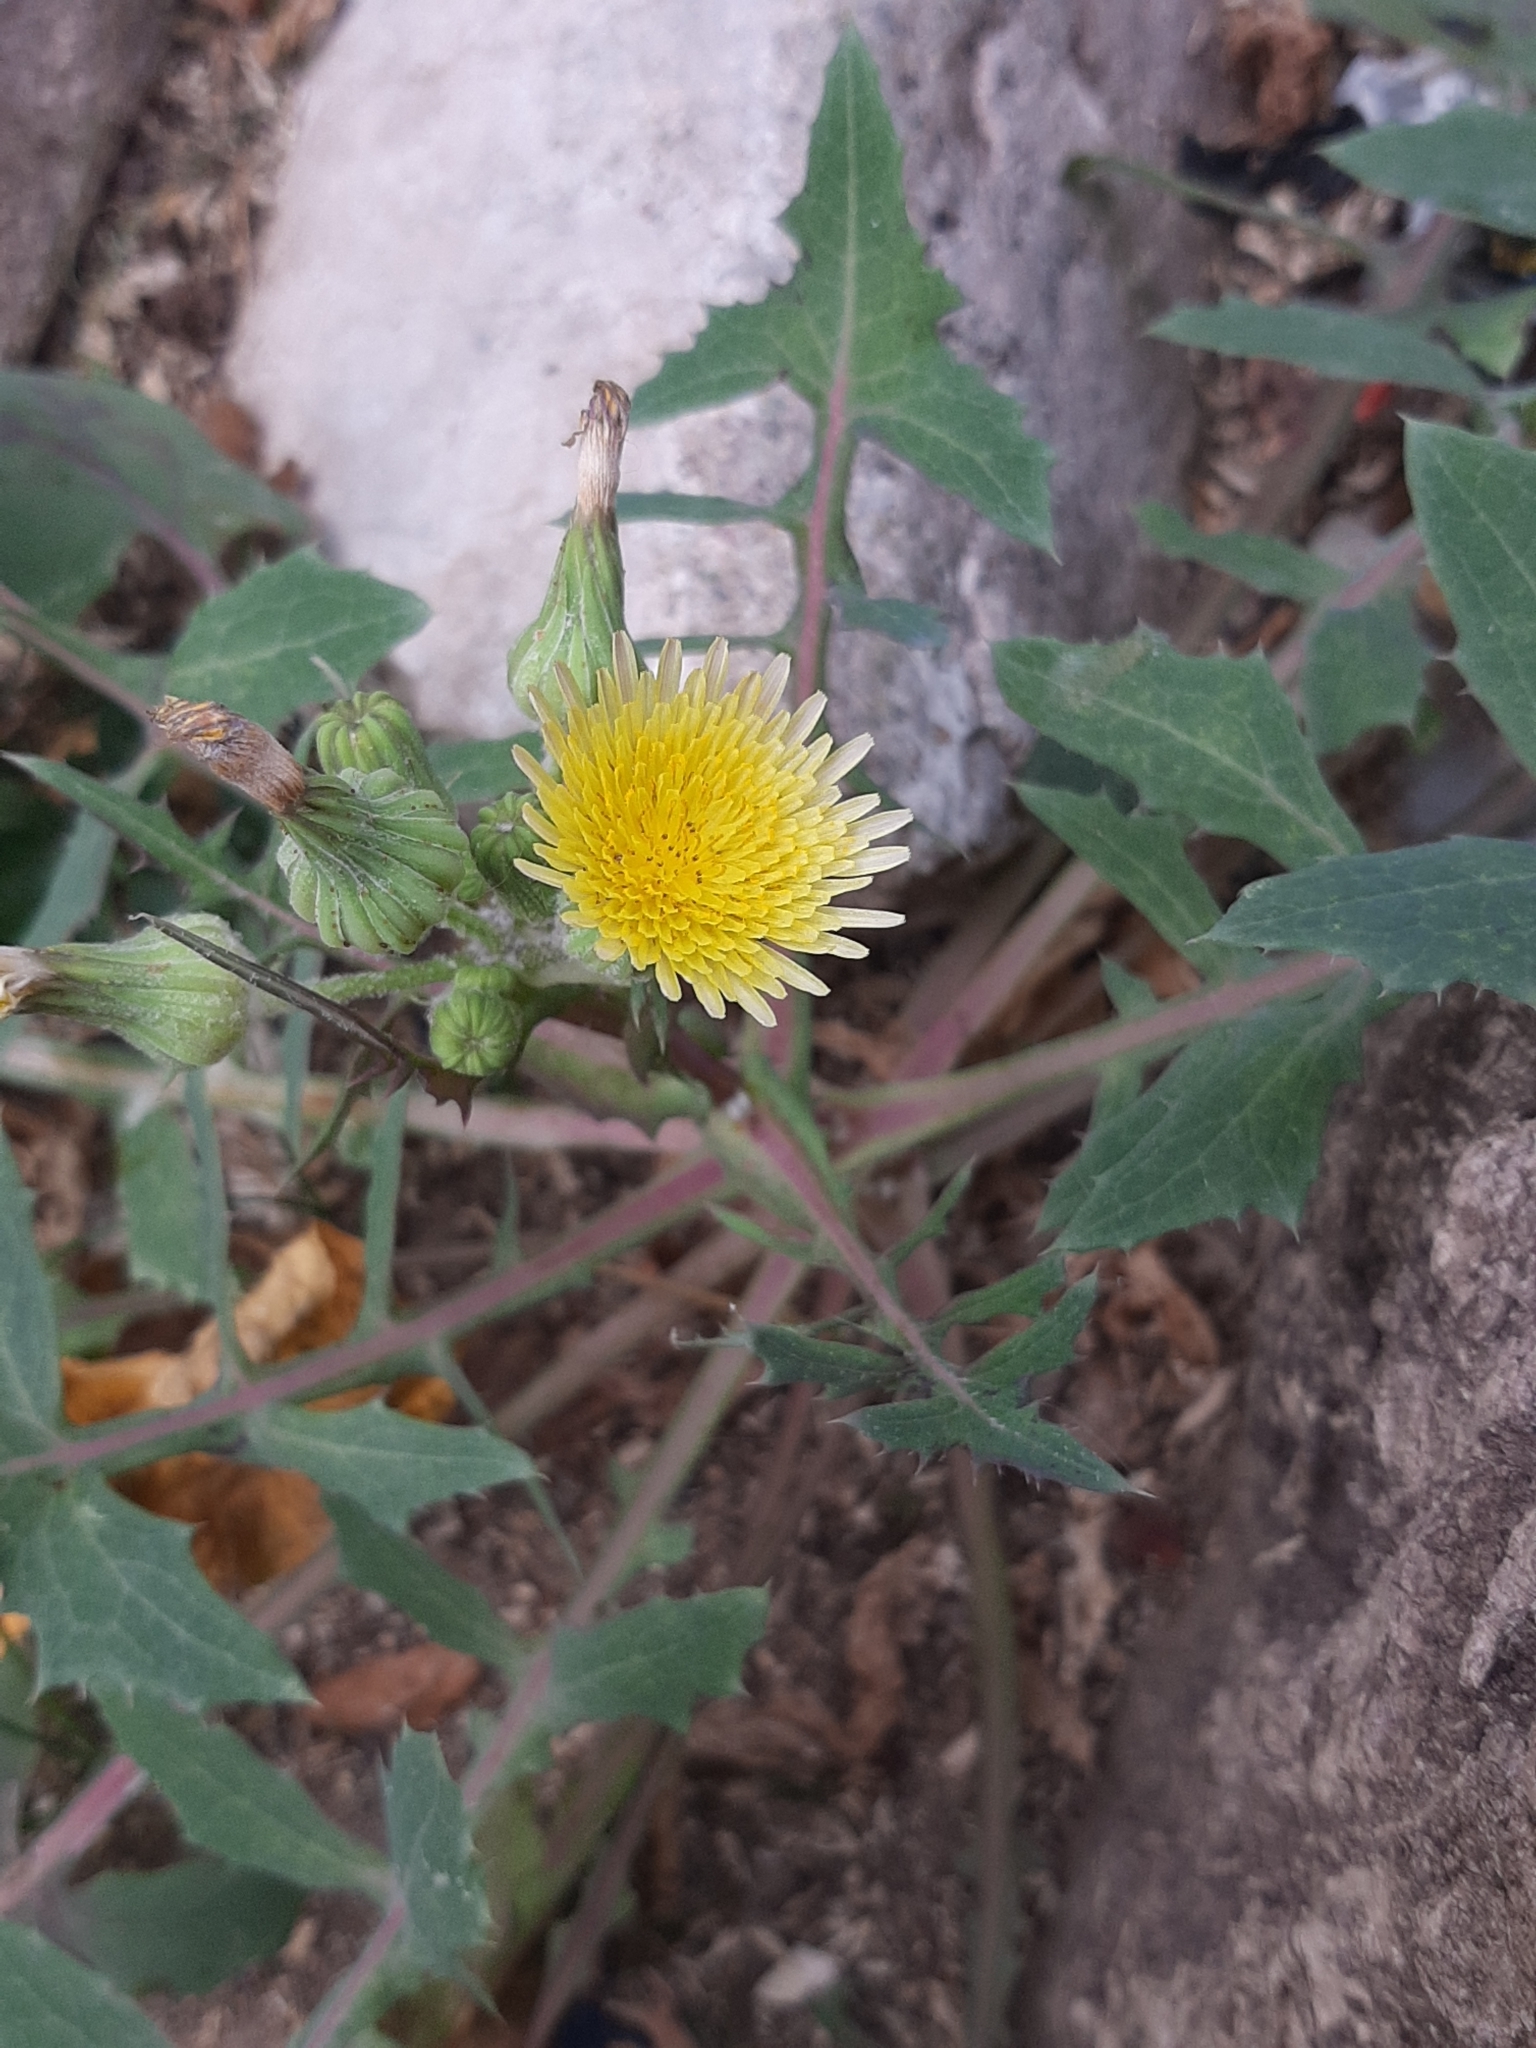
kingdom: Plantae
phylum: Tracheophyta
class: Magnoliopsida
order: Asterales
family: Asteraceae
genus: Sonchus
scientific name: Sonchus oleraceus
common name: Common sowthistle
